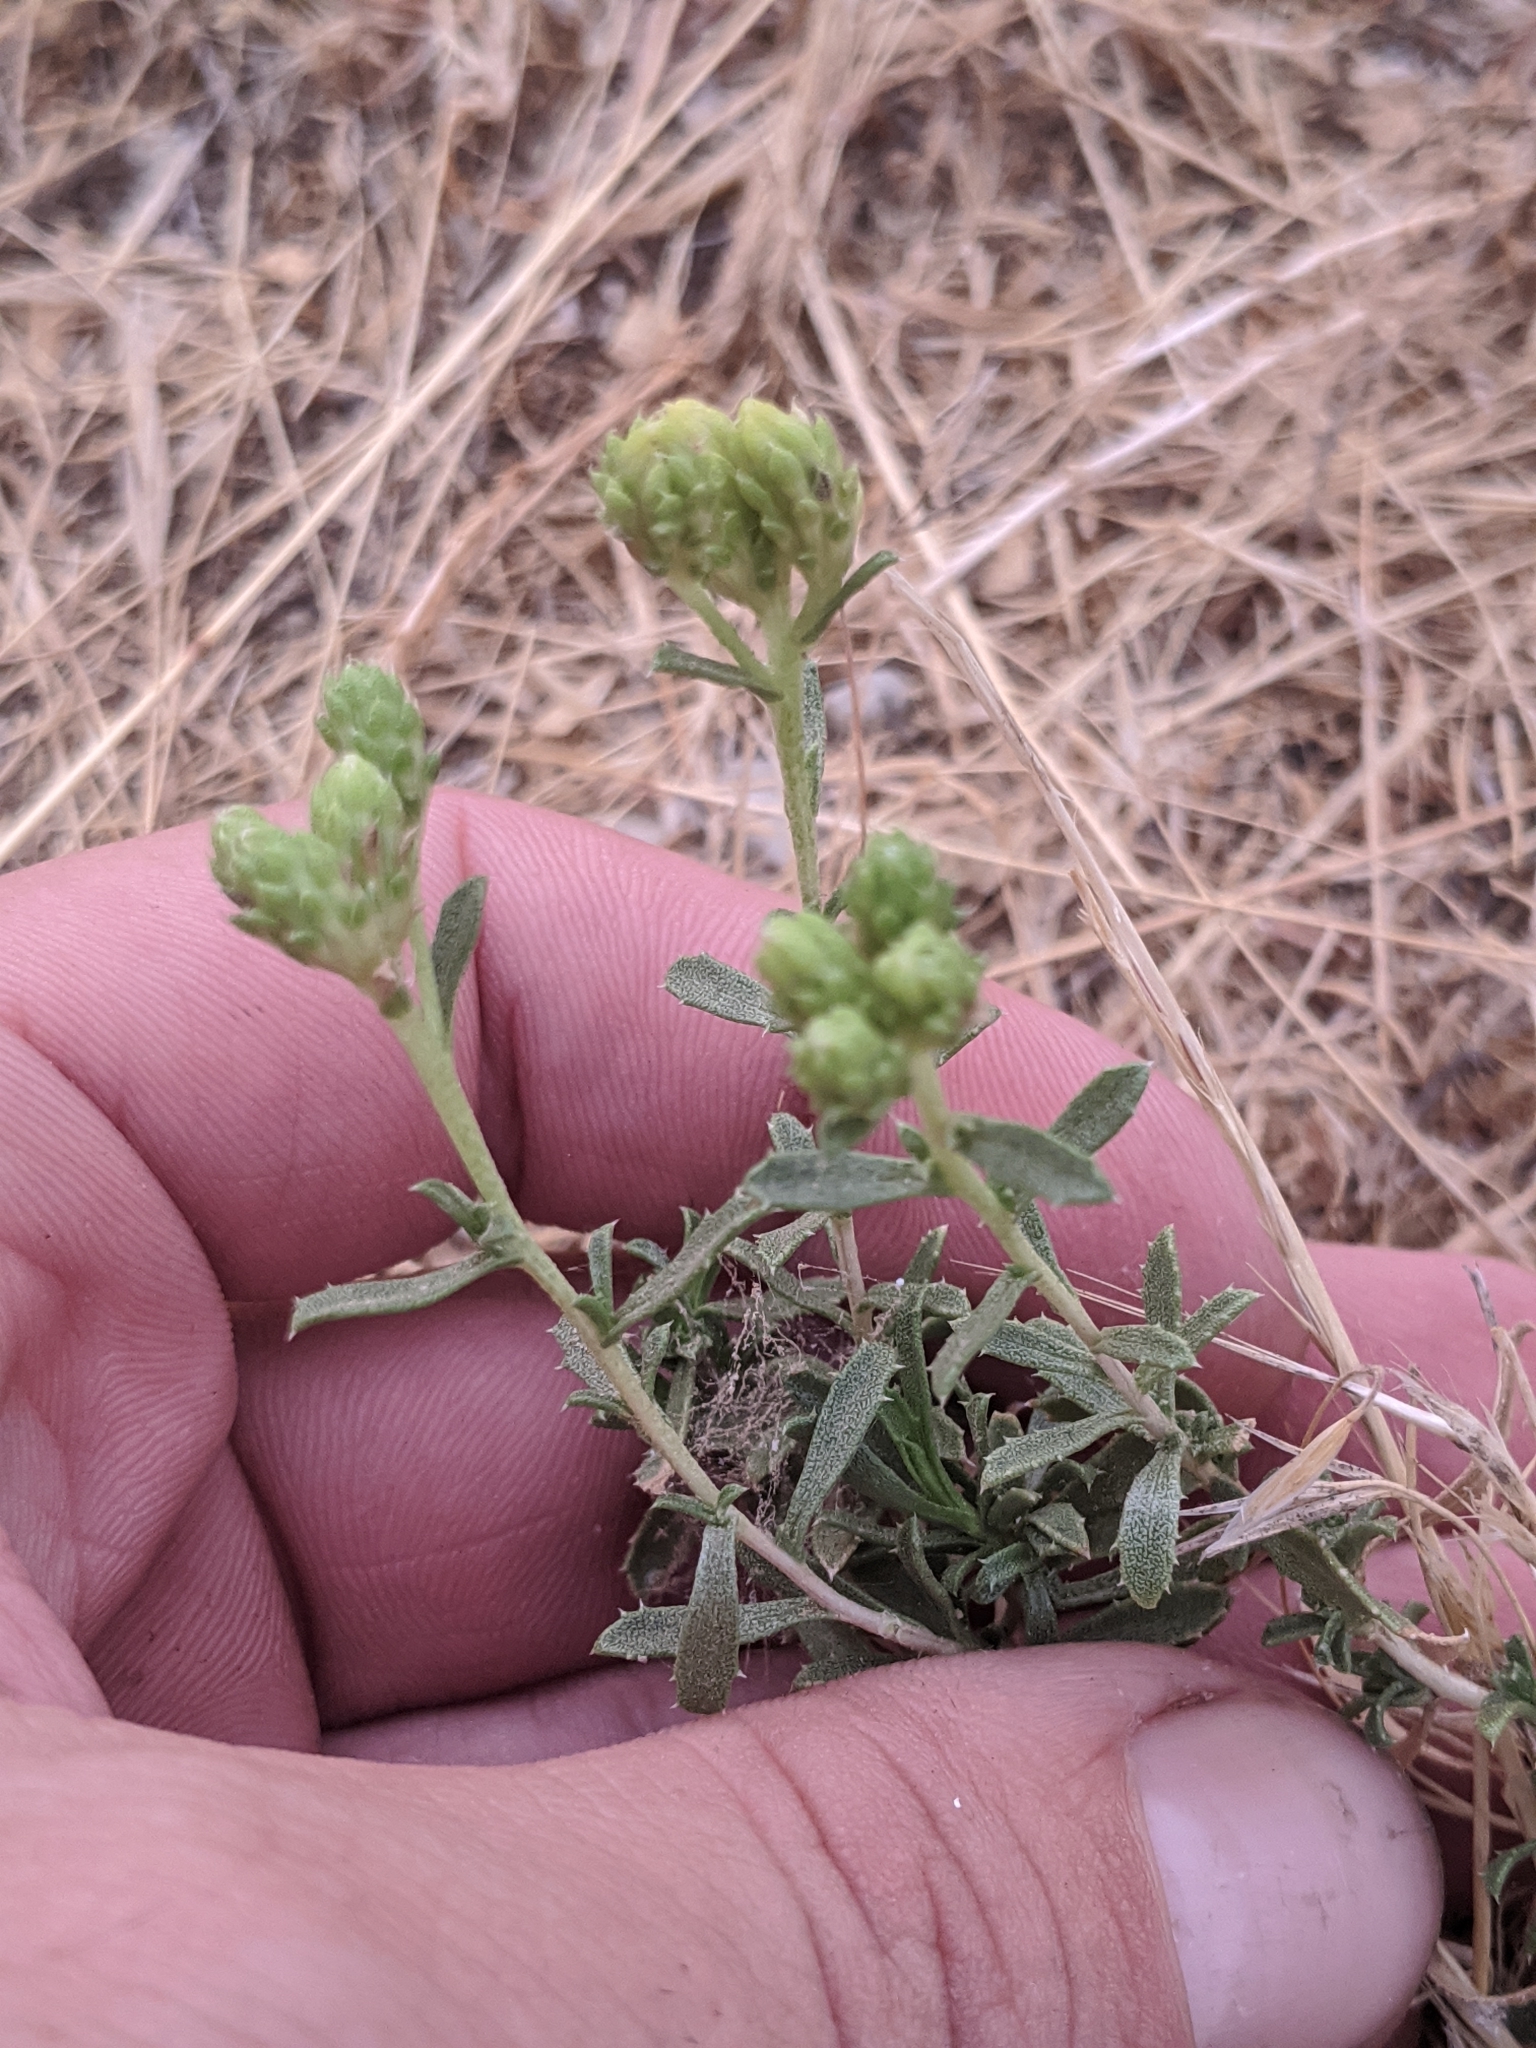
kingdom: Plantae
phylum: Tracheophyta
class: Magnoliopsida
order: Asterales
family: Asteraceae
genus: Isocoma
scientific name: Isocoma acradenia
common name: Alkali jimmyweed
